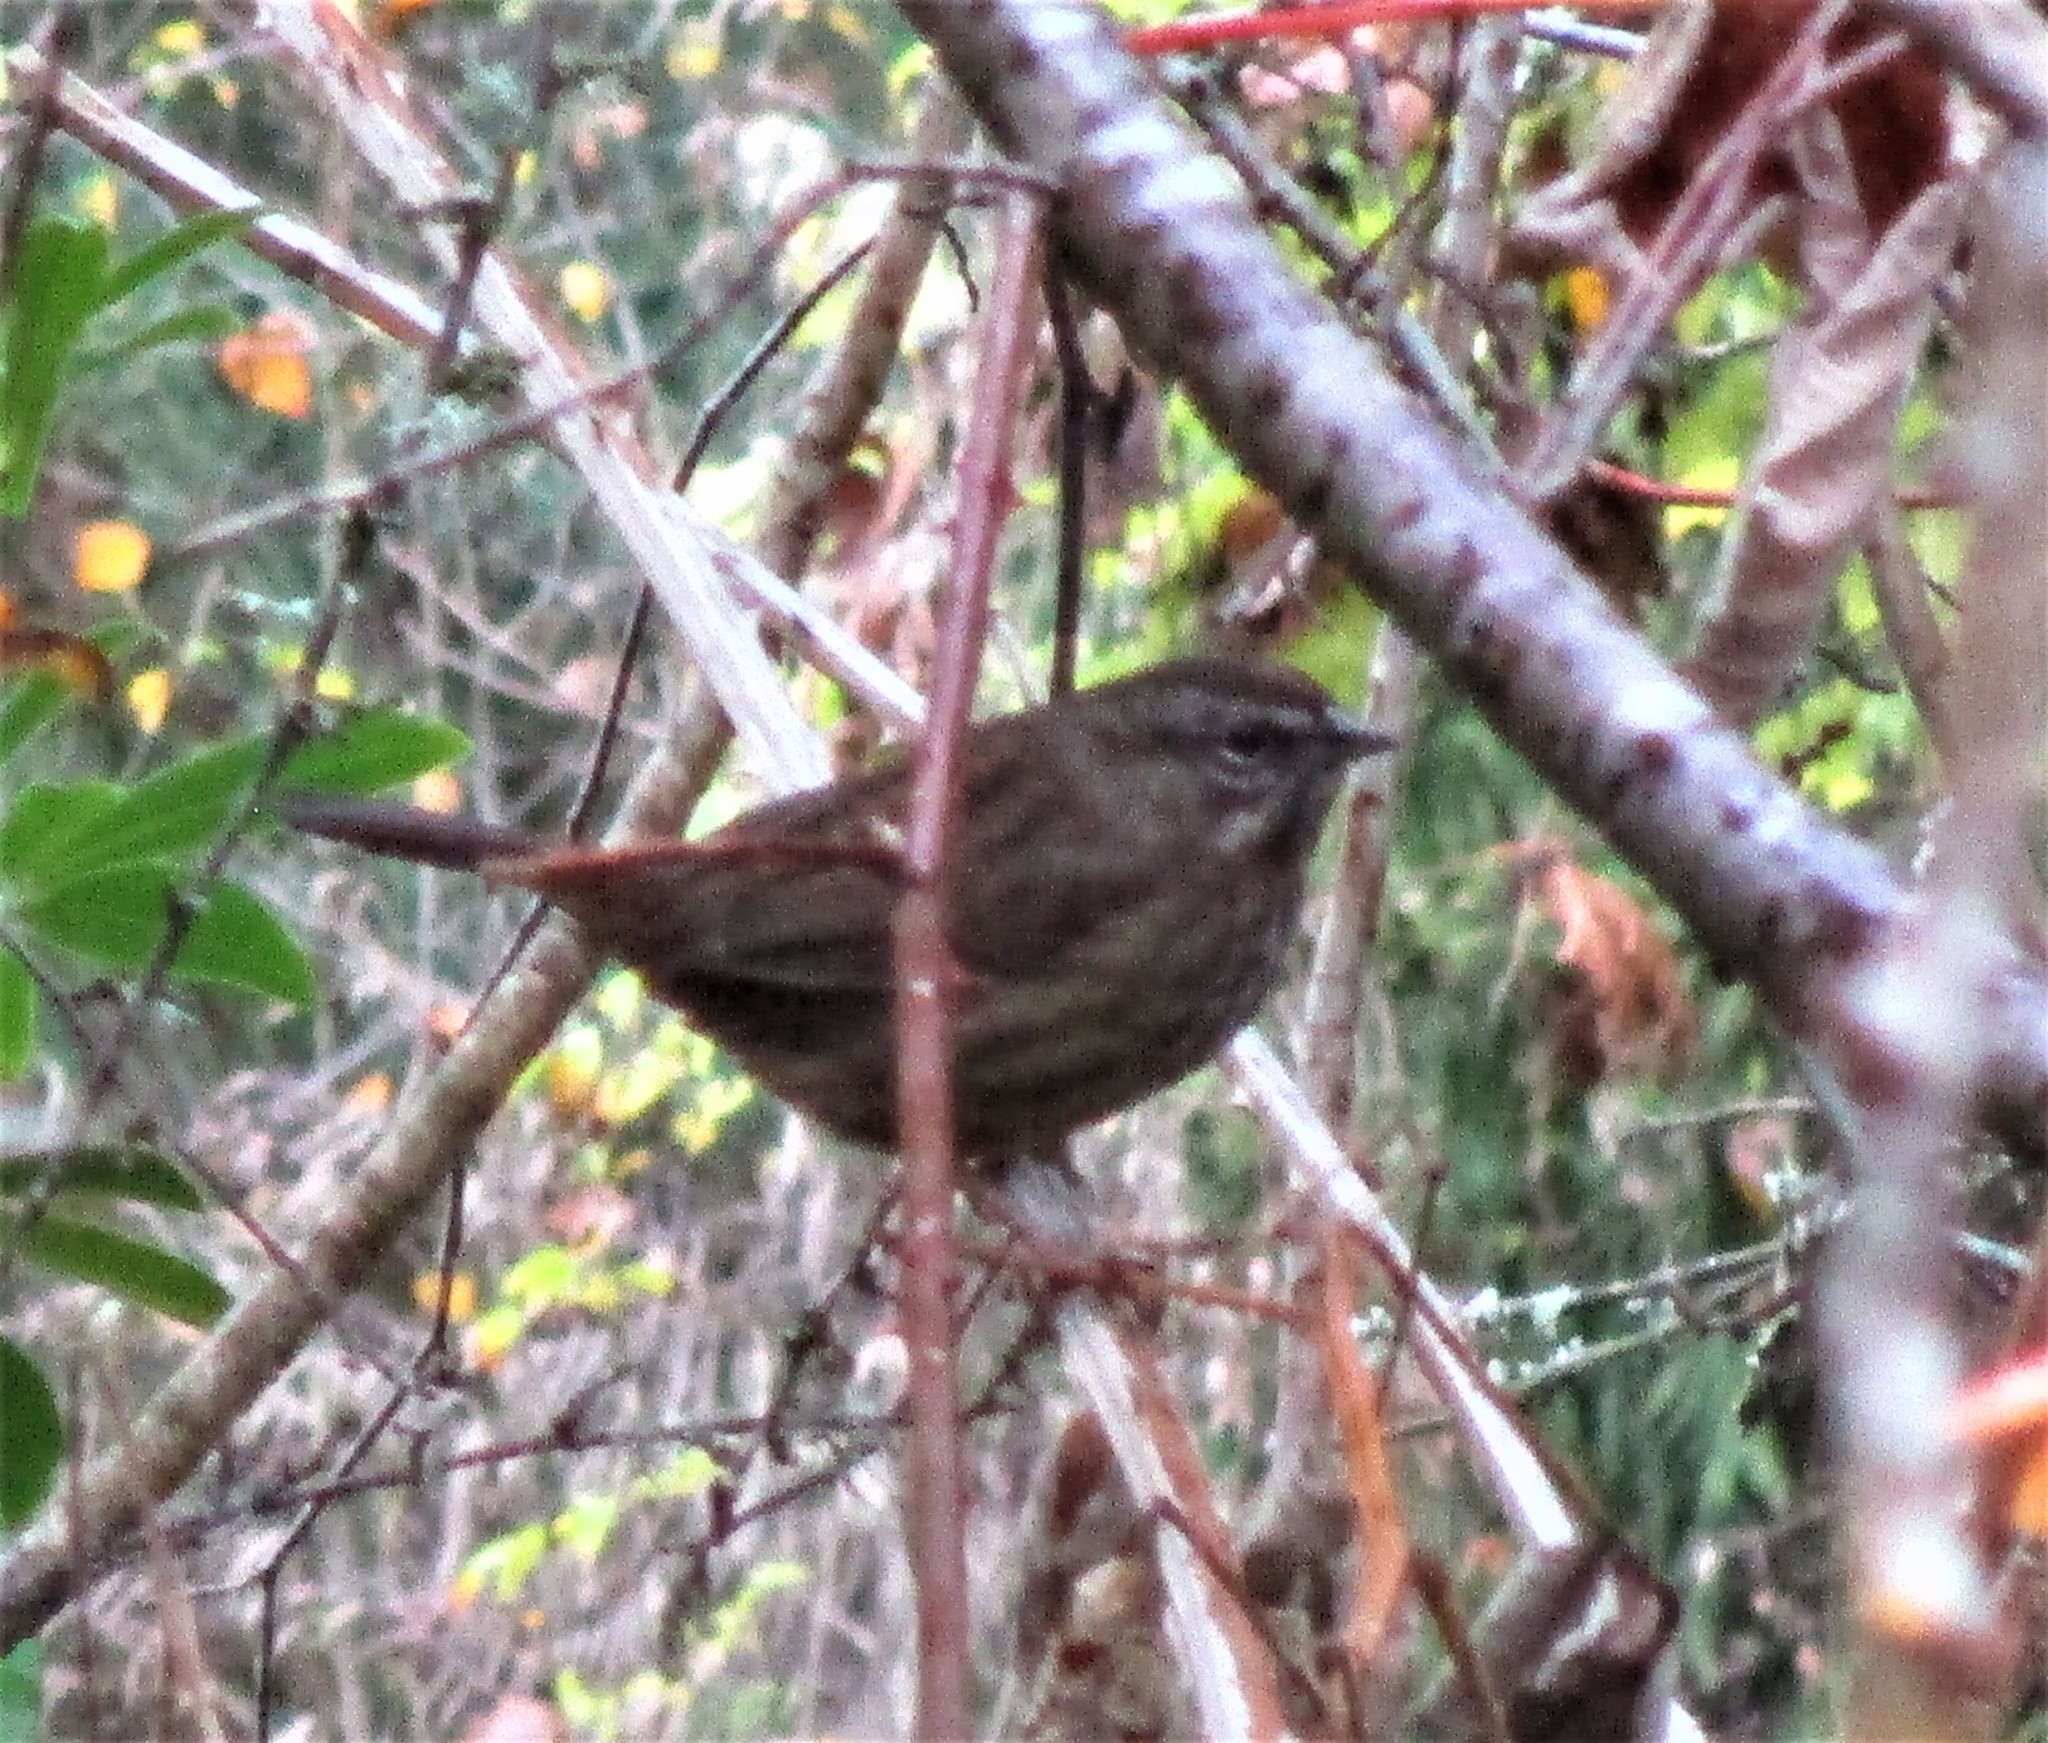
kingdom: Animalia
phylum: Chordata
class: Aves
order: Passeriformes
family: Passerellidae
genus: Melospiza
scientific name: Melospiza melodia
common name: Song sparrow
